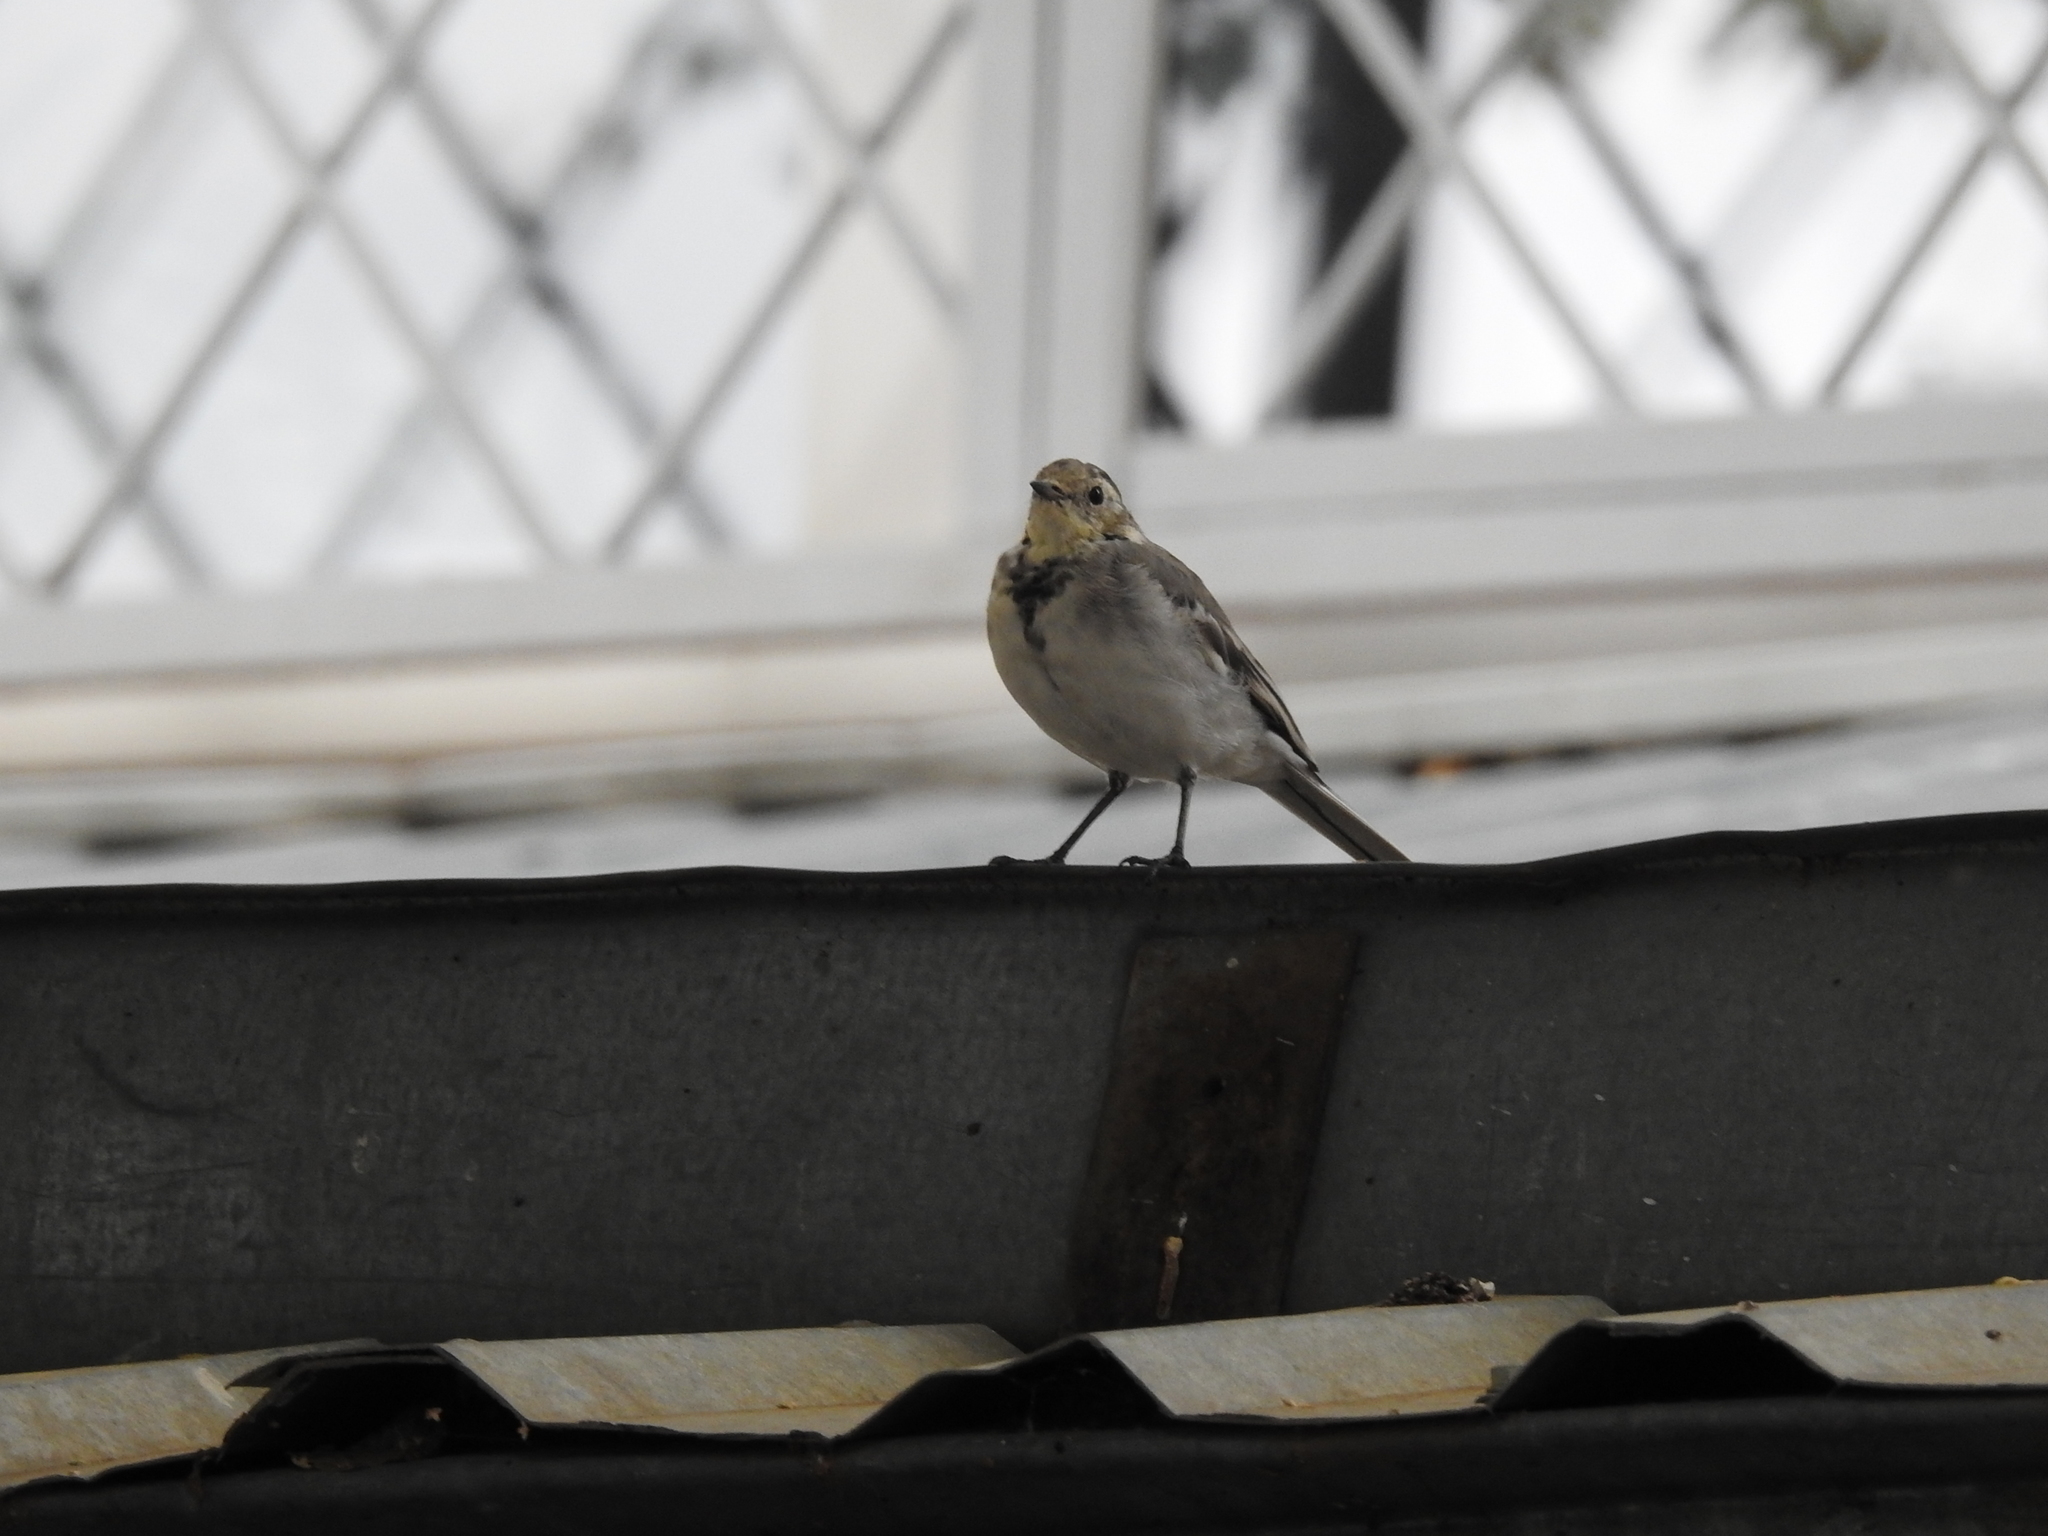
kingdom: Animalia
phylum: Chordata
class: Aves
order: Passeriformes
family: Motacillidae
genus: Motacilla
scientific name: Motacilla alba
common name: White wagtail
